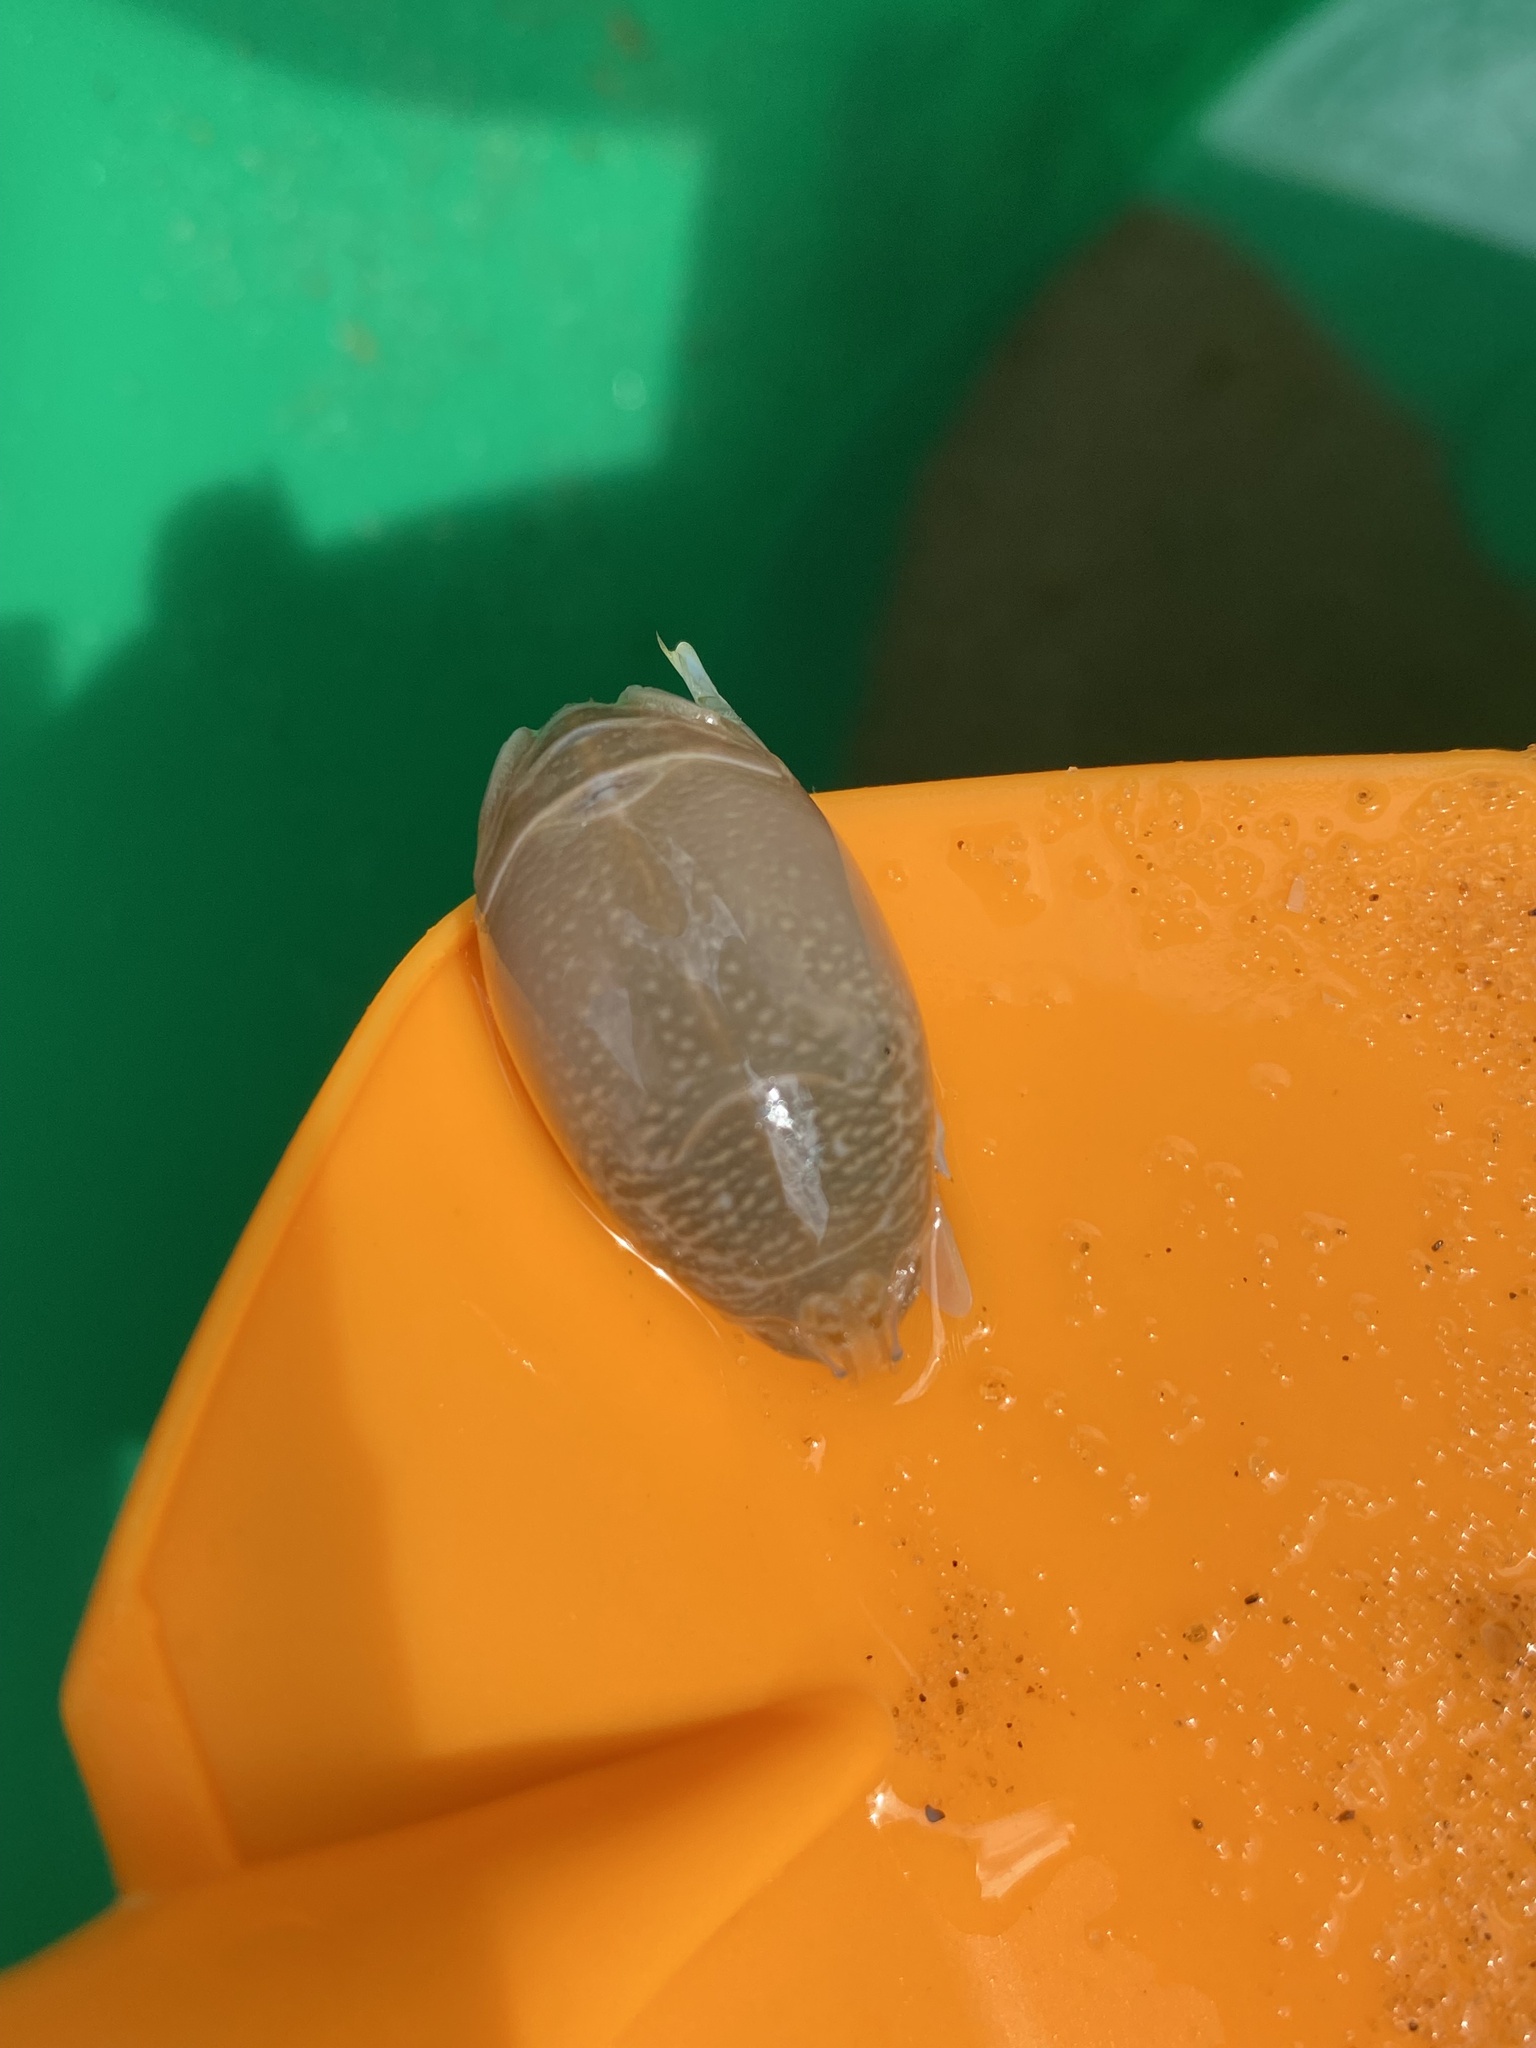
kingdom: Animalia
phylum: Arthropoda
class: Malacostraca
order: Decapoda
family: Hippidae
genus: Emerita
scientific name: Emerita talpoida
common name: Atlantic sand crab
